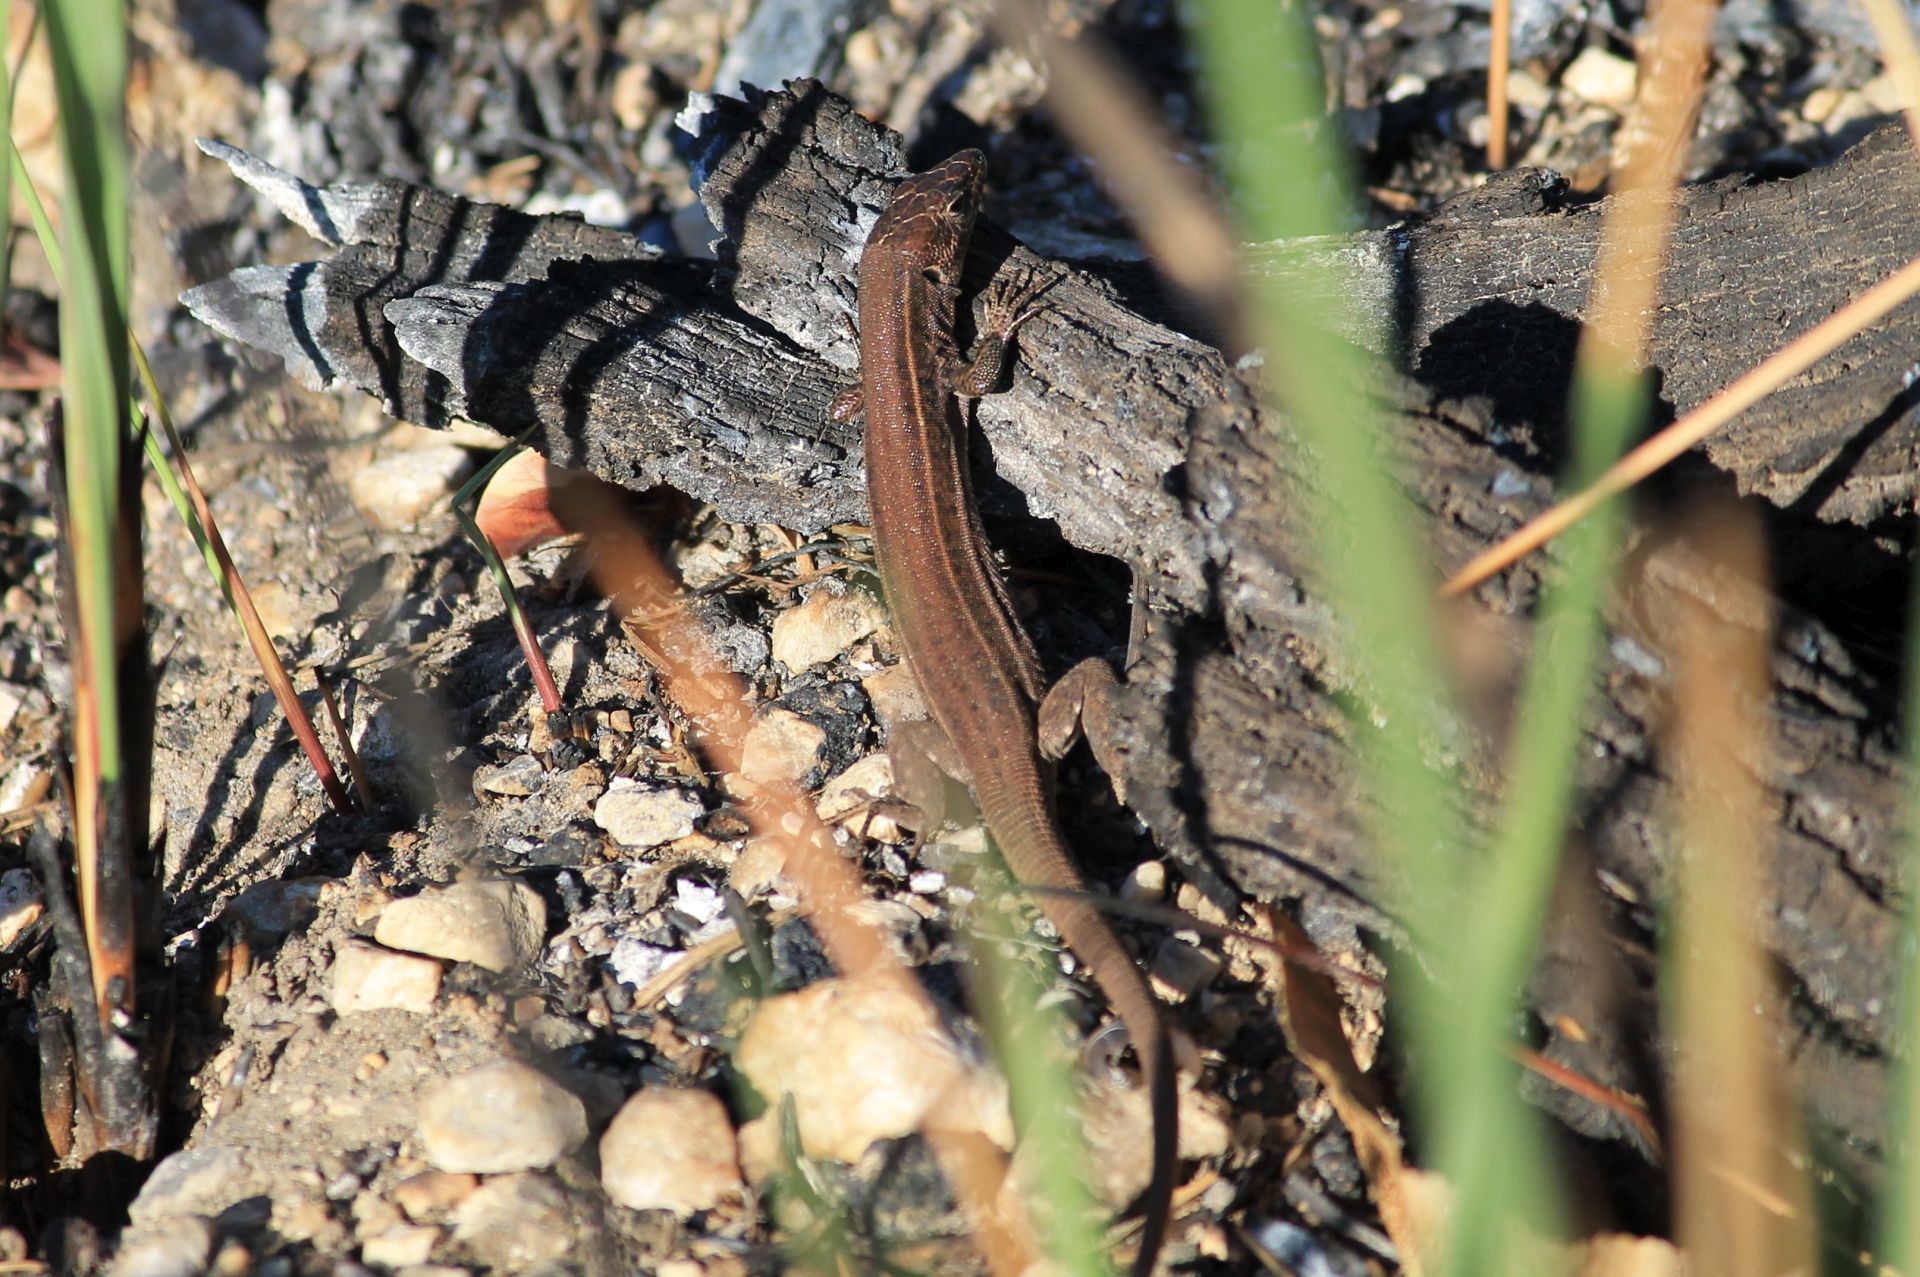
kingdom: Animalia
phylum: Chordata
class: Squamata
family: Lacertidae
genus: Podarcis
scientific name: Podarcis ionicus
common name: Ionian wall lizard
